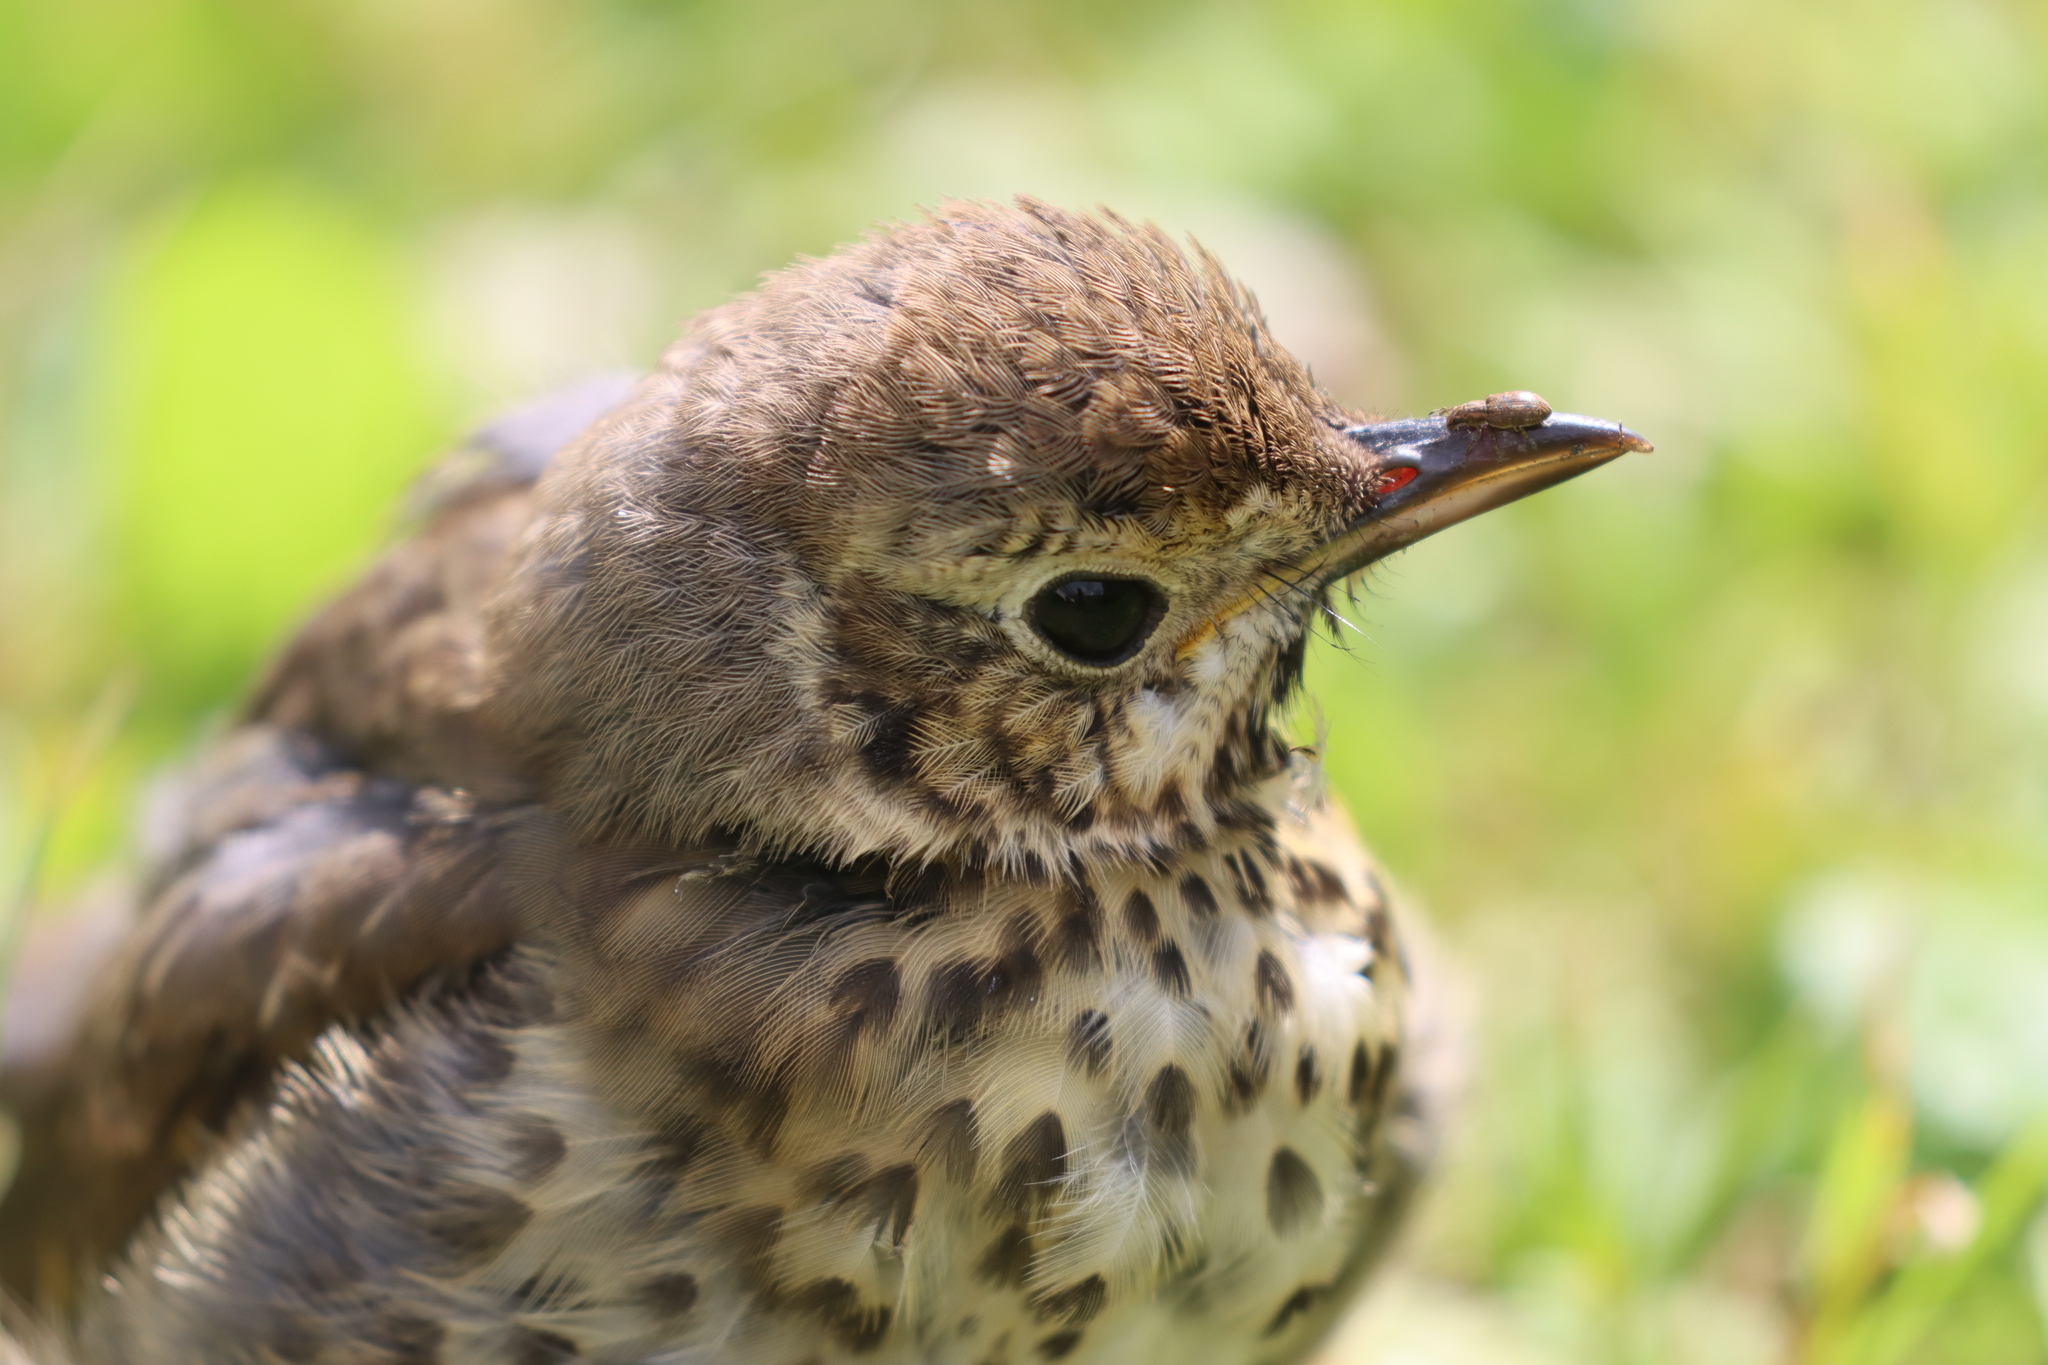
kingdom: Animalia
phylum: Chordata
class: Aves
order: Passeriformes
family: Turdidae
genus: Turdus
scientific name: Turdus philomelos
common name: Song thrush
